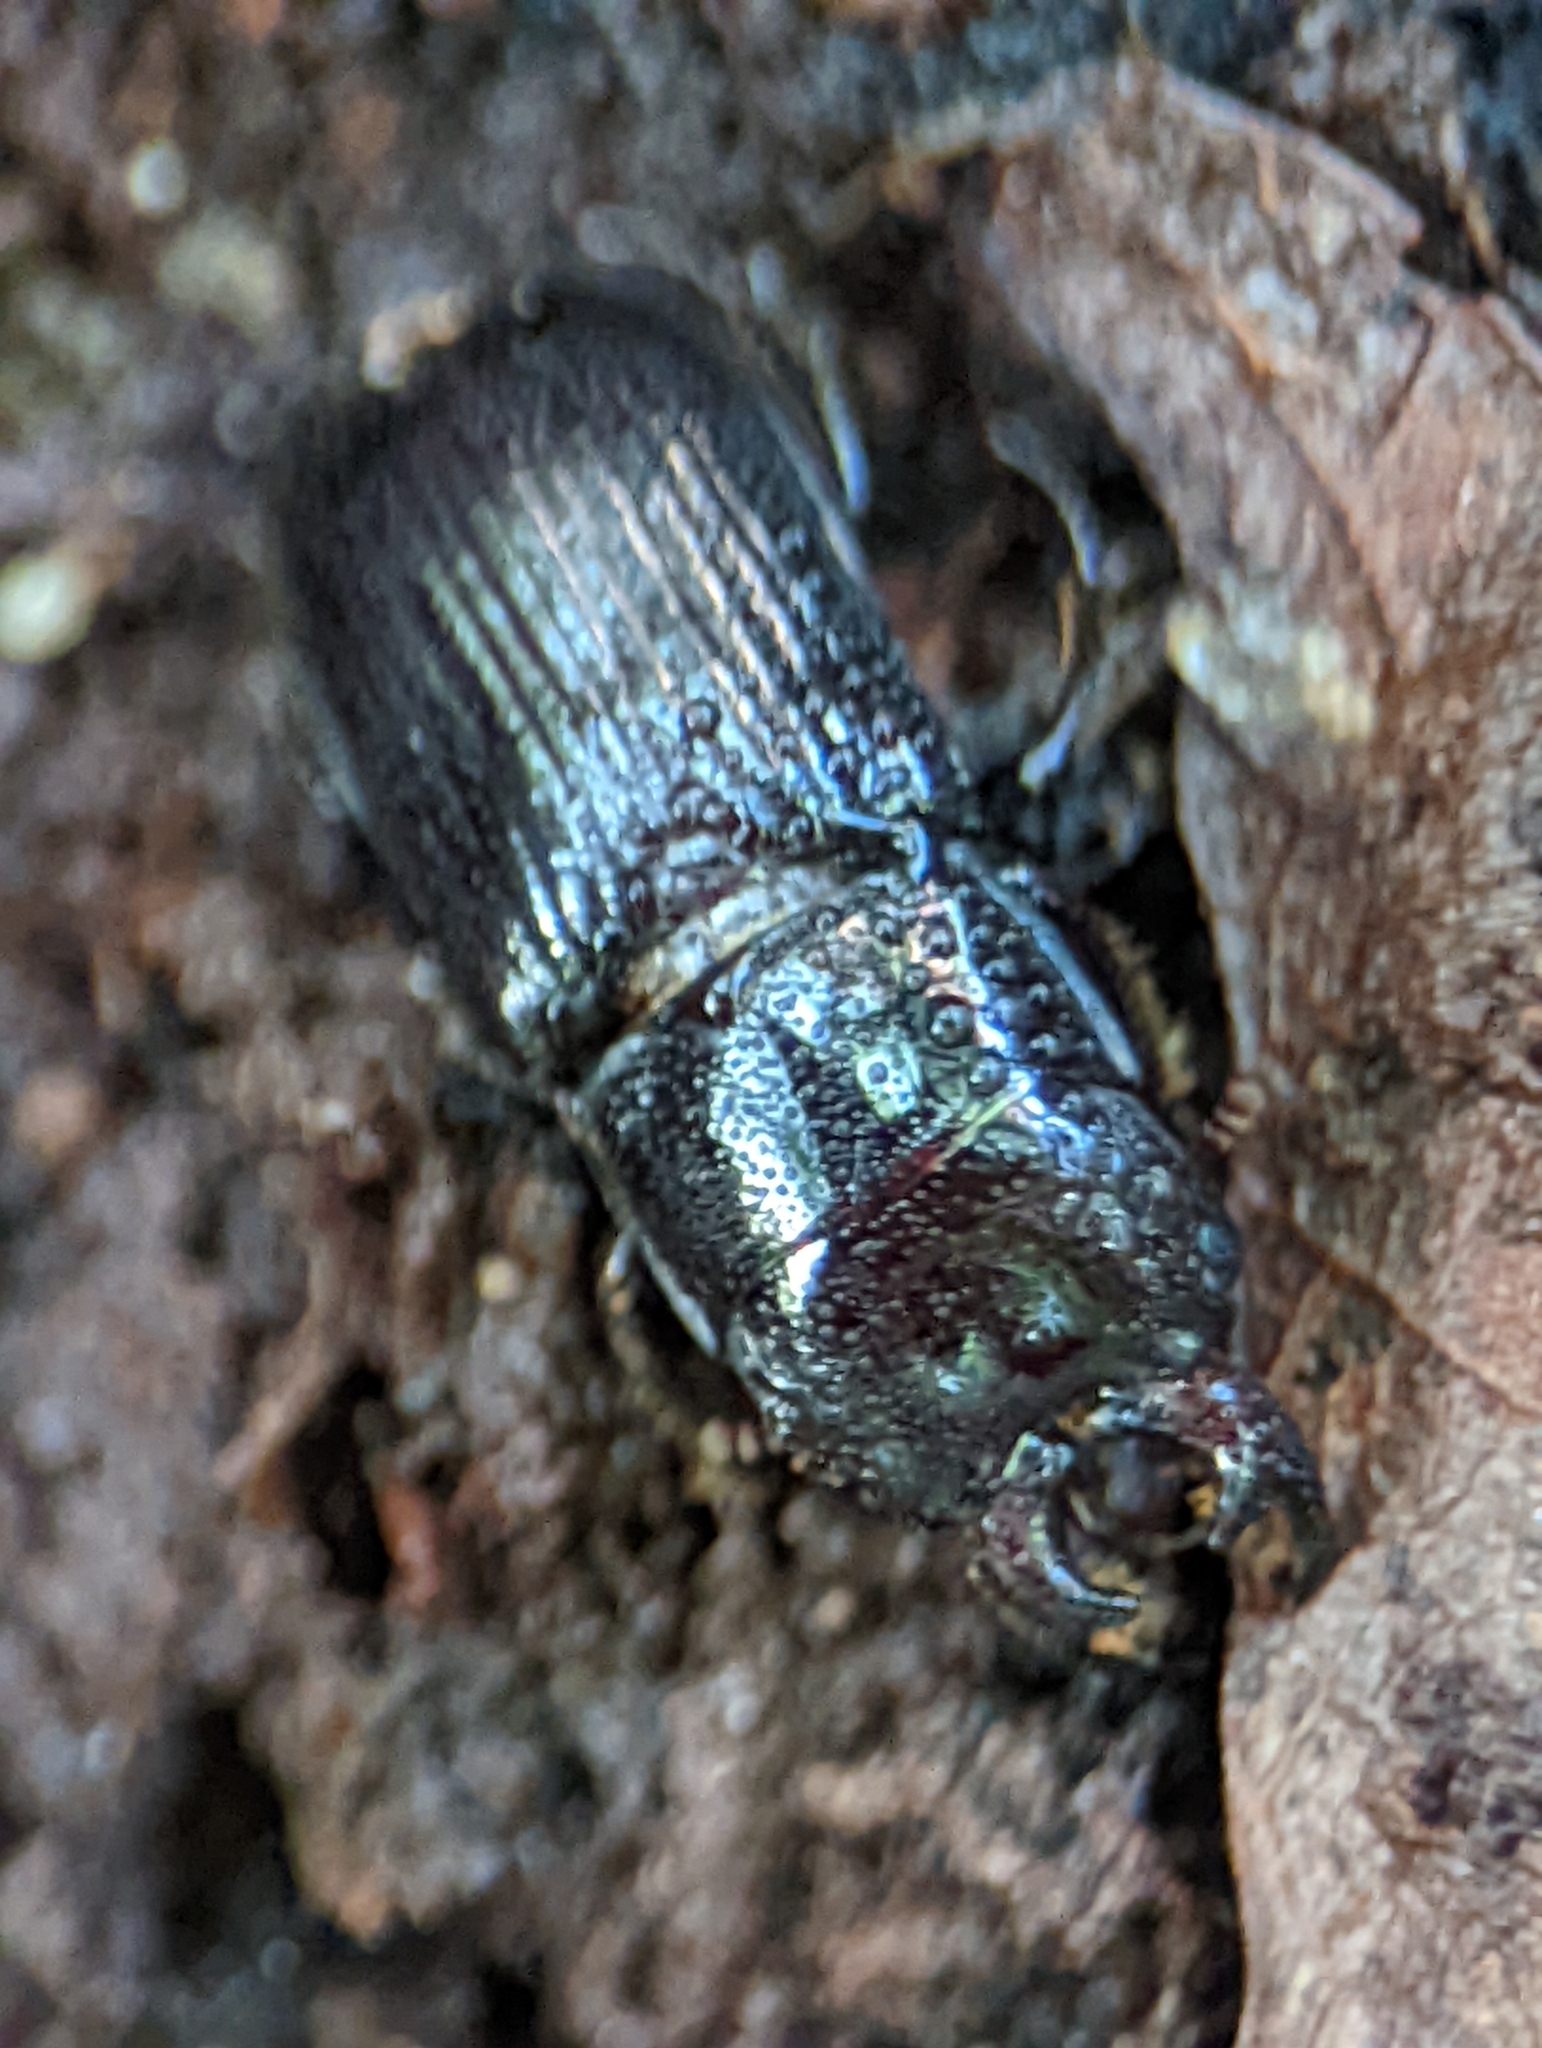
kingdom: Animalia
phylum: Arthropoda
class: Insecta
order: Coleoptera
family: Lucanidae
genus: Ceruchus
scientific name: Ceruchus piceus
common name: Red-rot decay stag beetle
